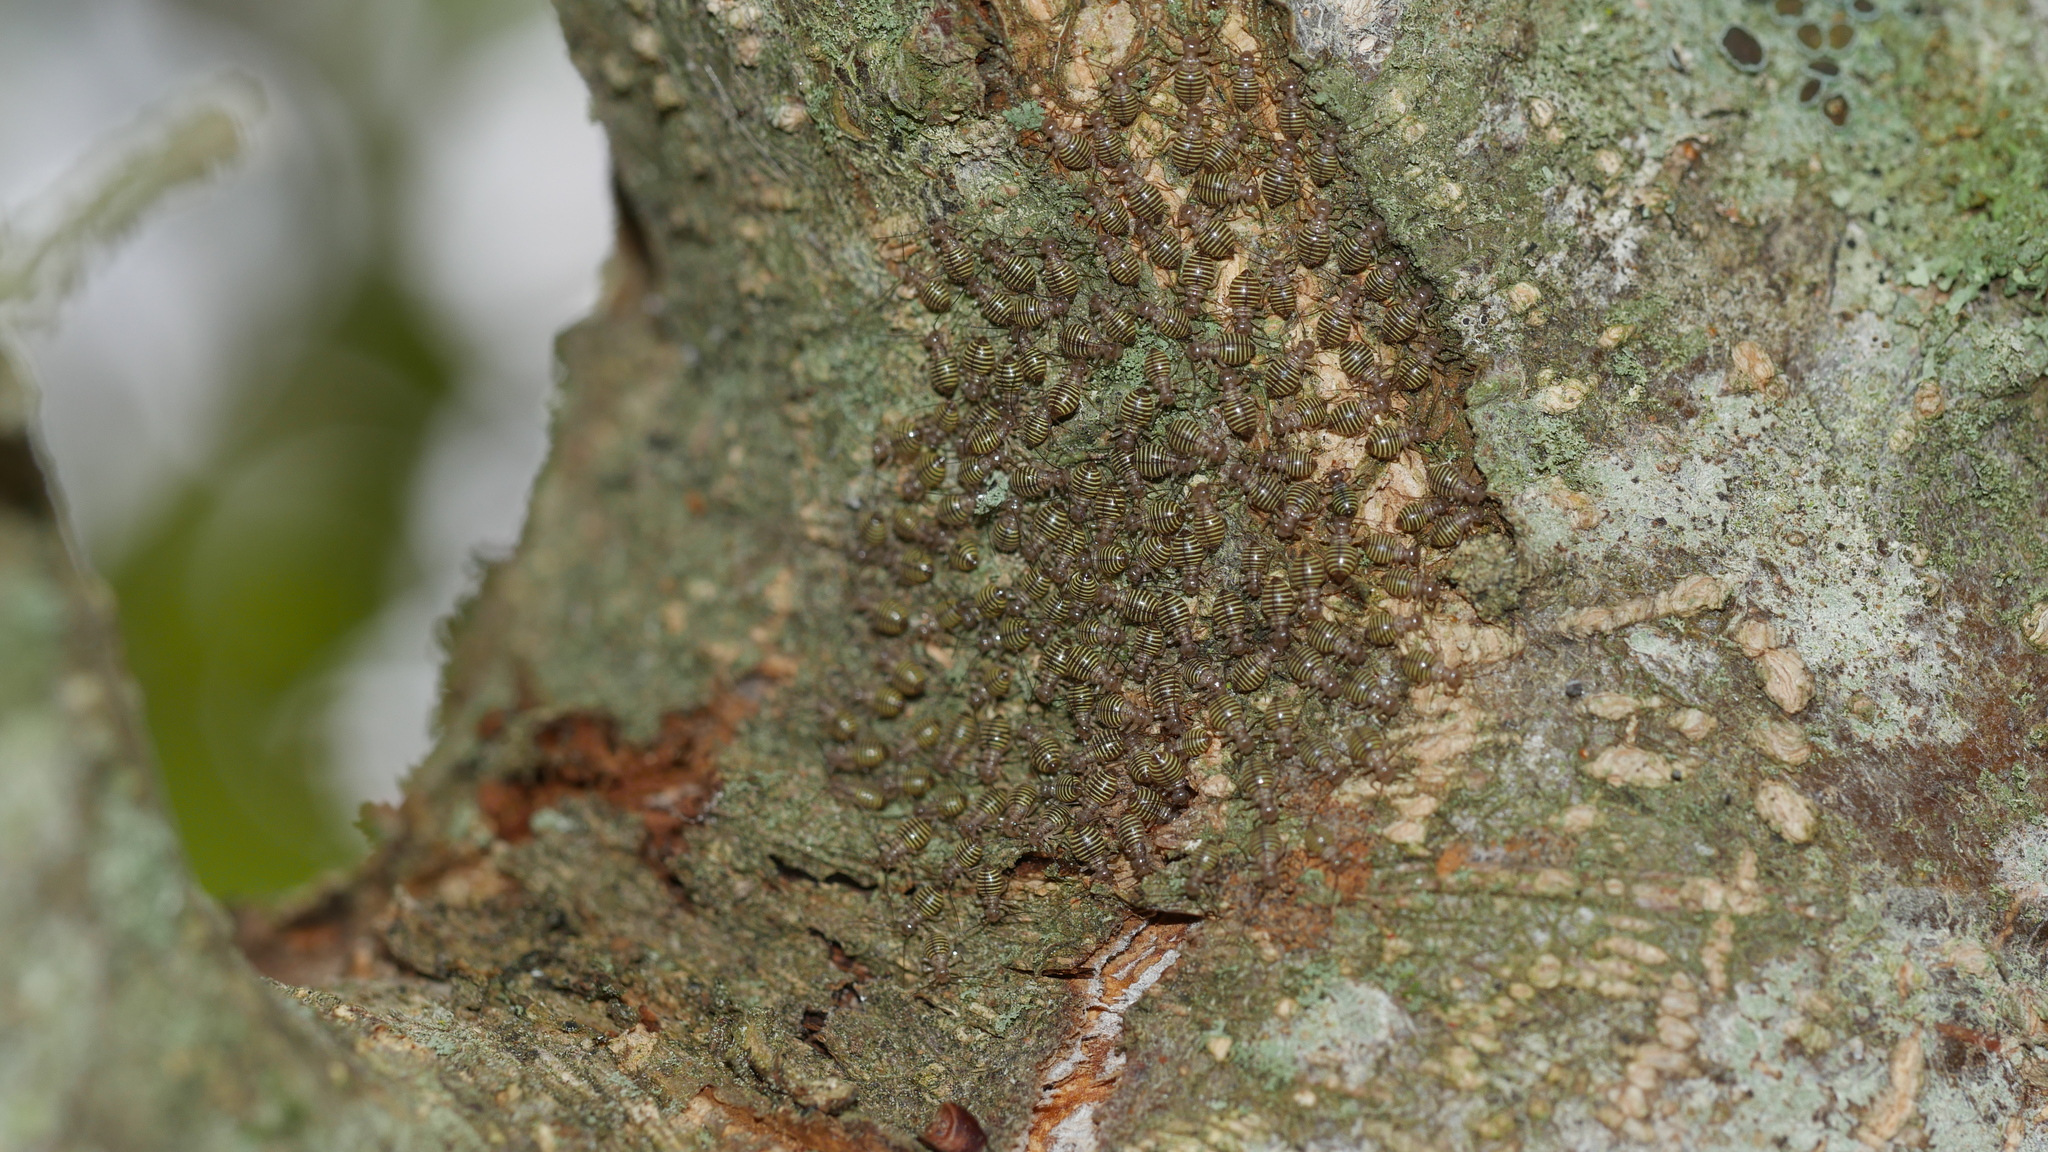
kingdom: Animalia
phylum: Arthropoda
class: Insecta
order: Psocodea
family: Psocidae
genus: Cerastipsocus
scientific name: Cerastipsocus venosus
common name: Tree cattle
